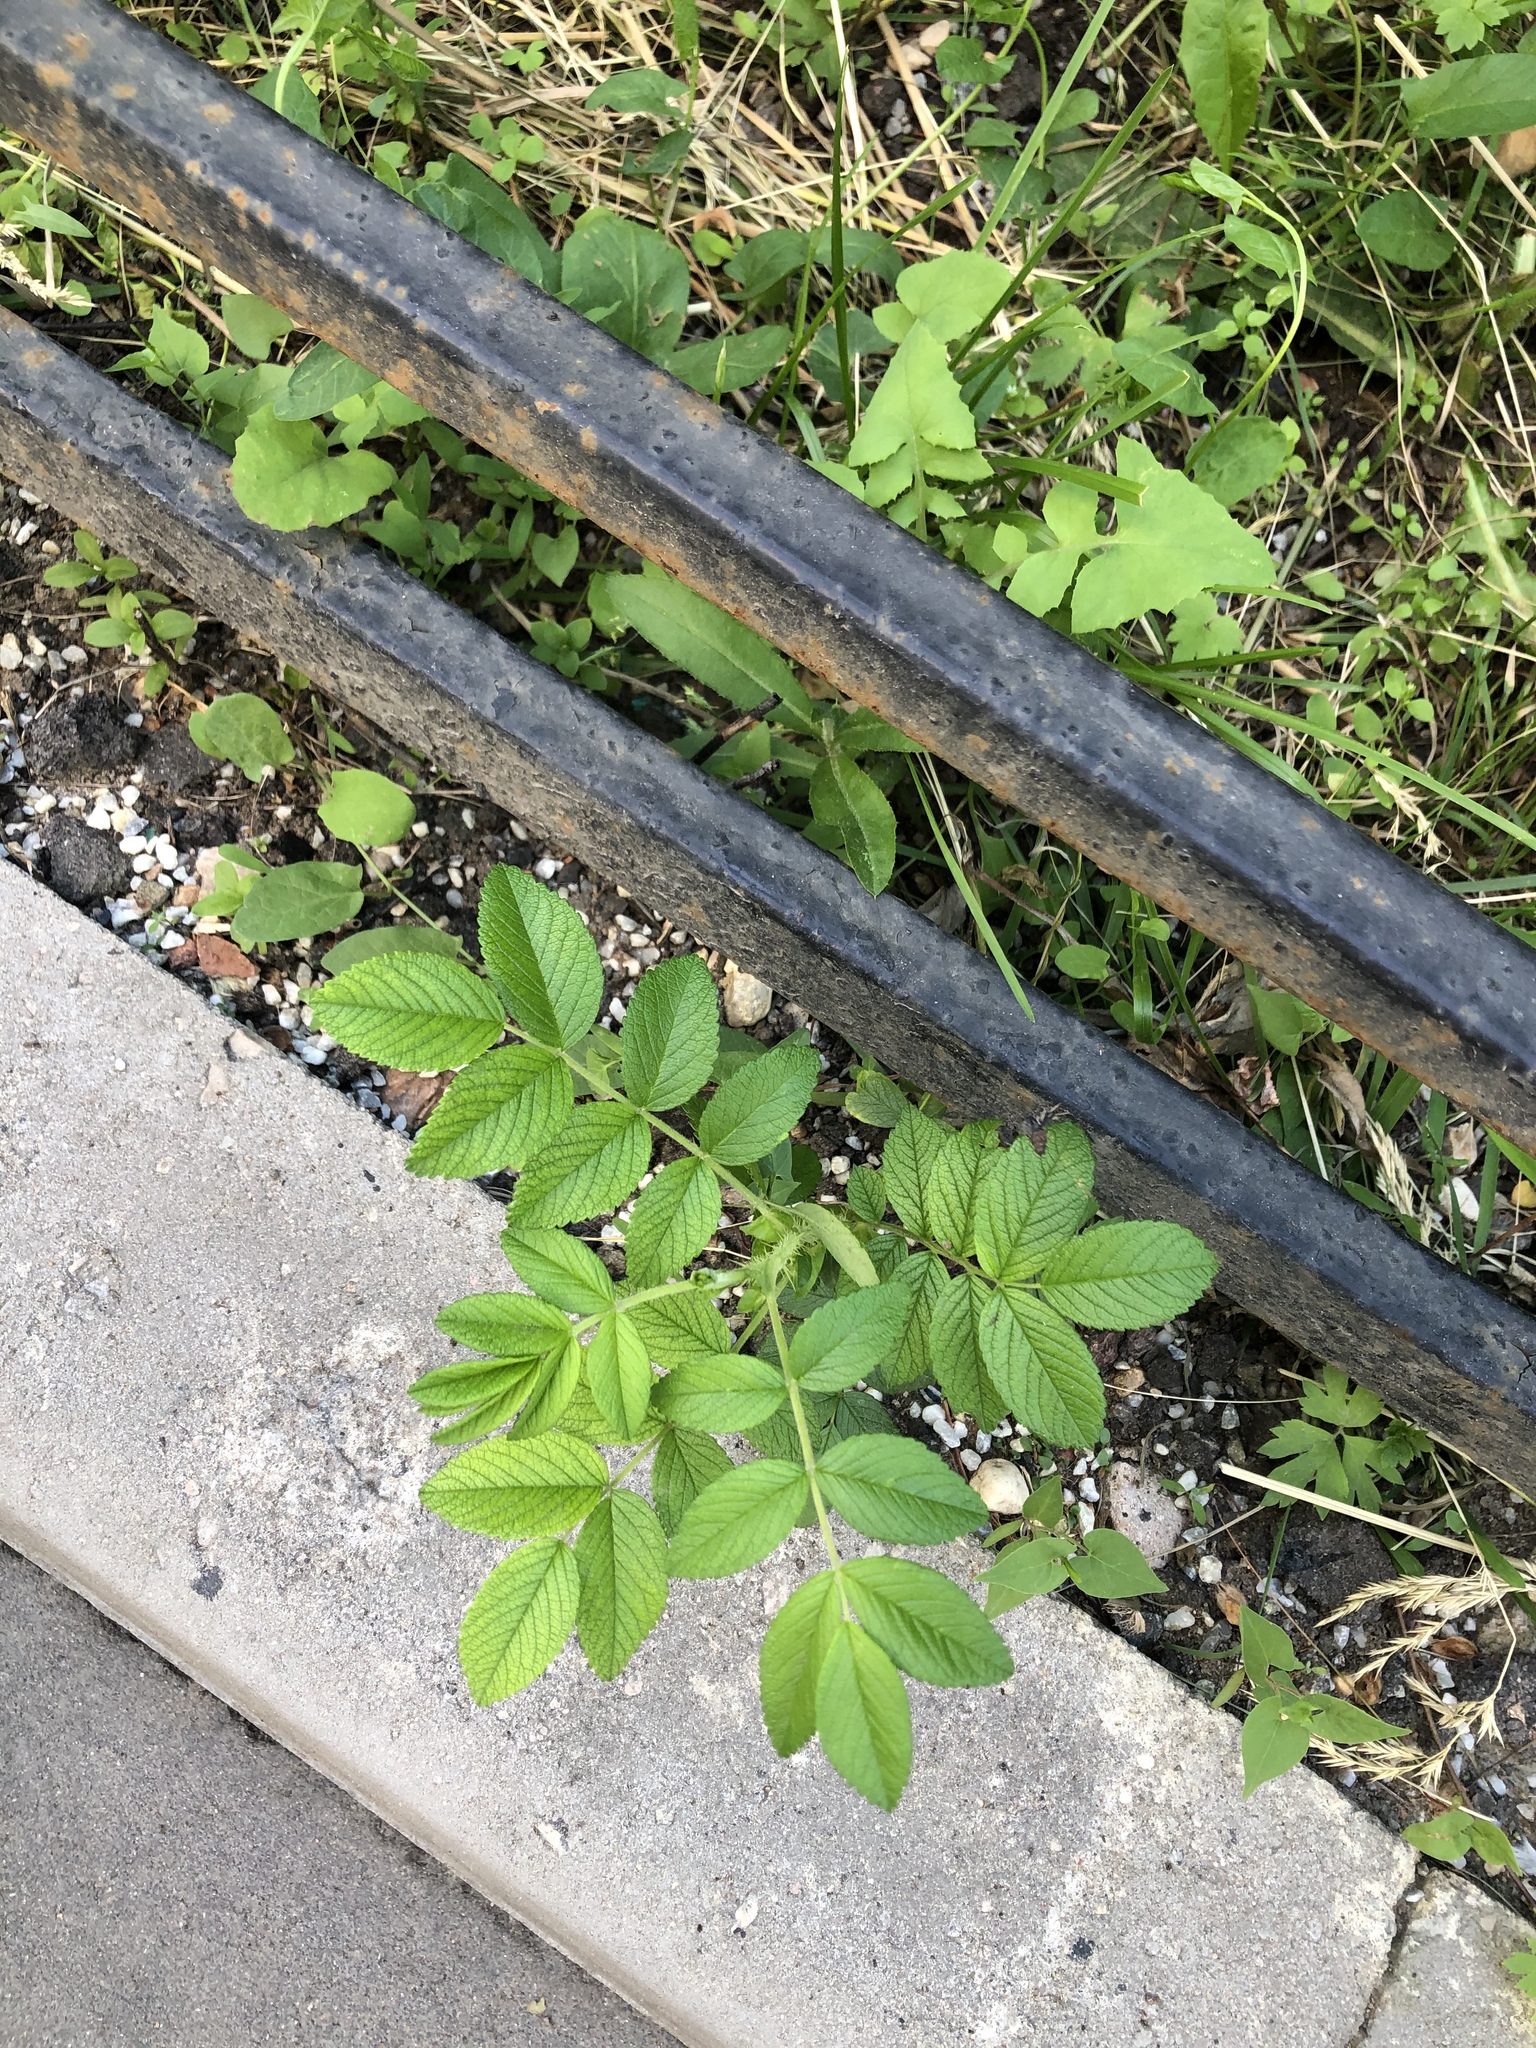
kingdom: Plantae
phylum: Tracheophyta
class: Magnoliopsida
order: Rosales
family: Rosaceae
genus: Rosa
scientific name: Rosa rugosa
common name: Japanese rose
